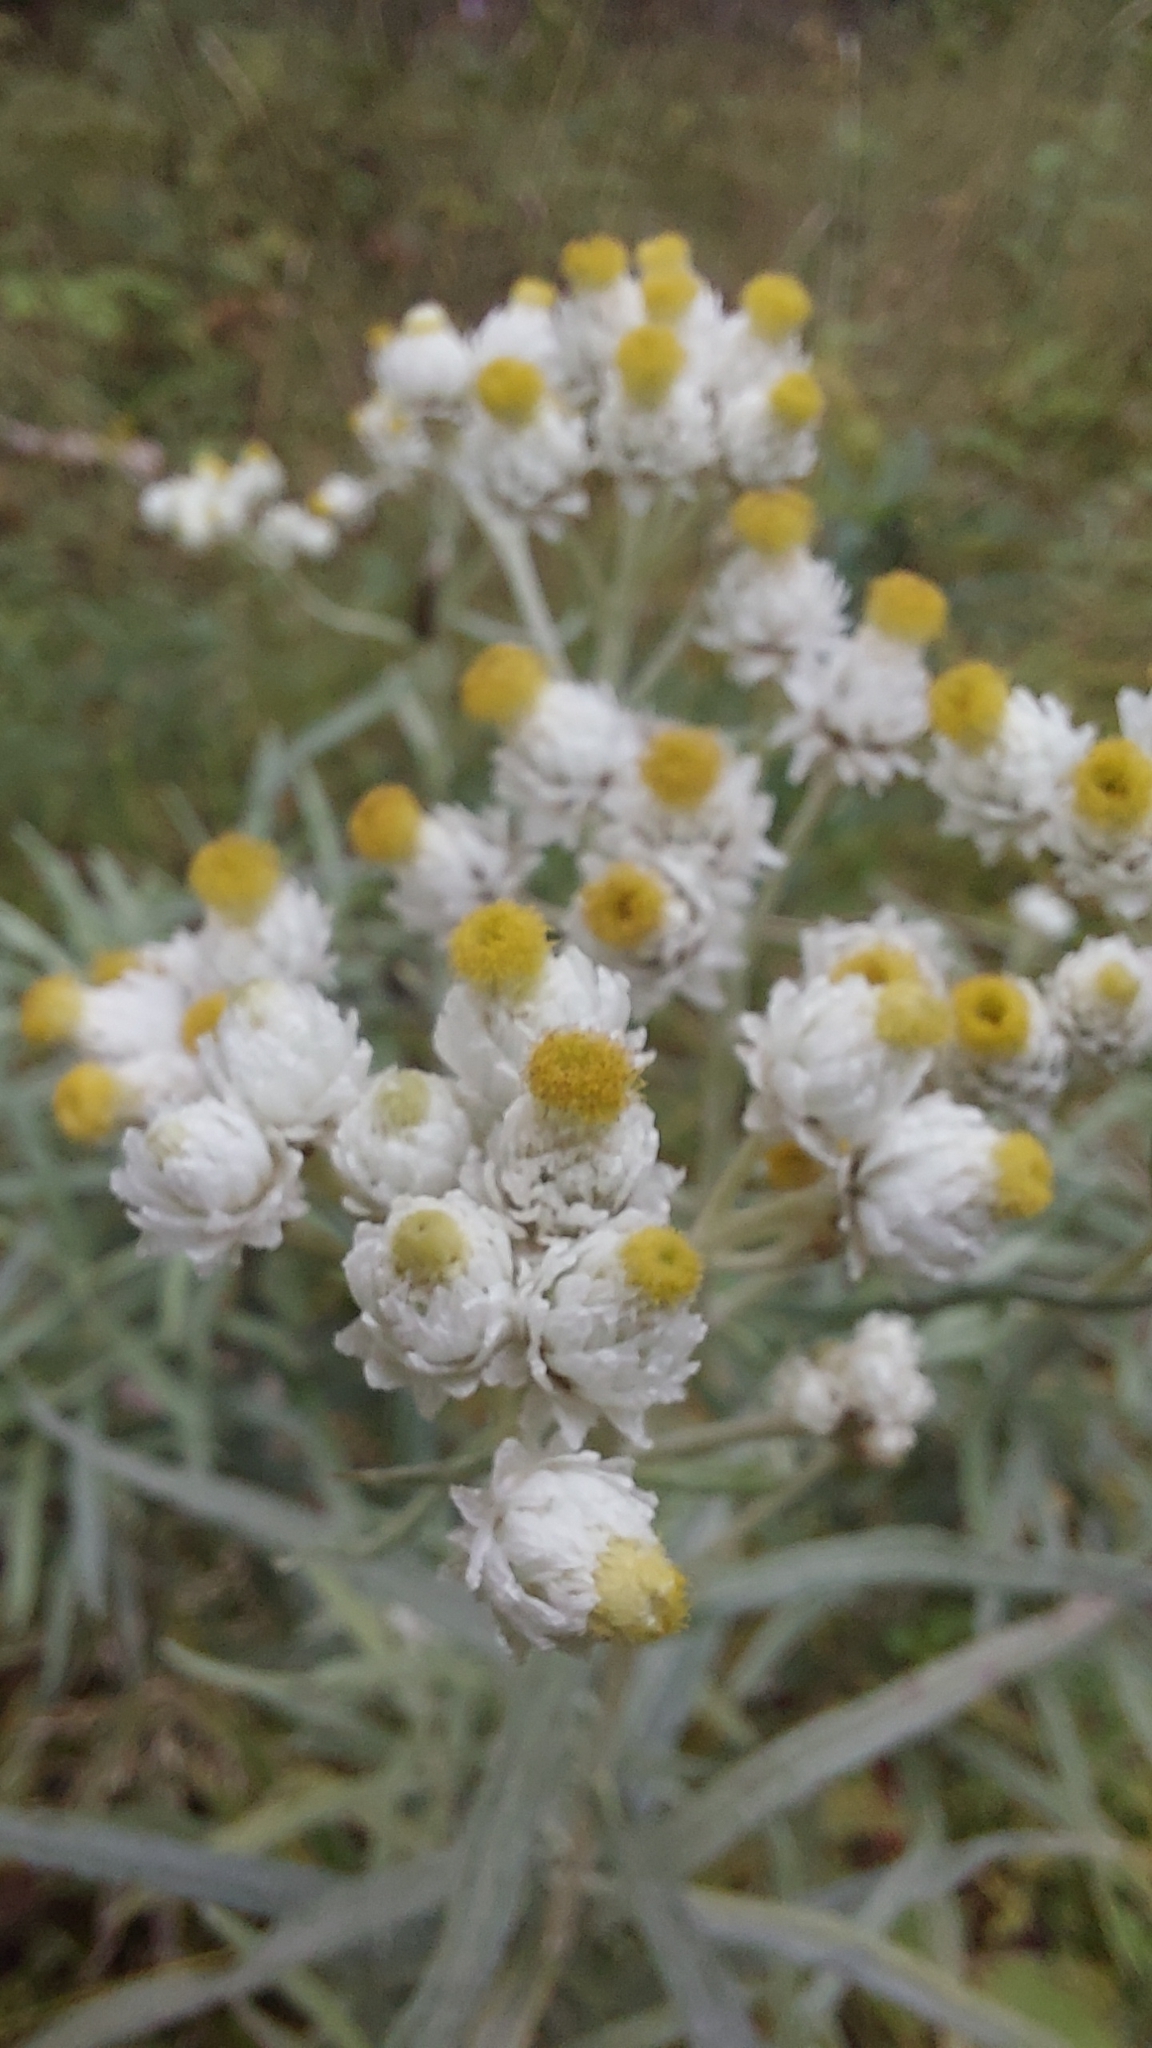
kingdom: Plantae
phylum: Tracheophyta
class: Magnoliopsida
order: Asterales
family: Asteraceae
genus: Anaphalis
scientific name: Anaphalis margaritacea
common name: Pearly everlasting
